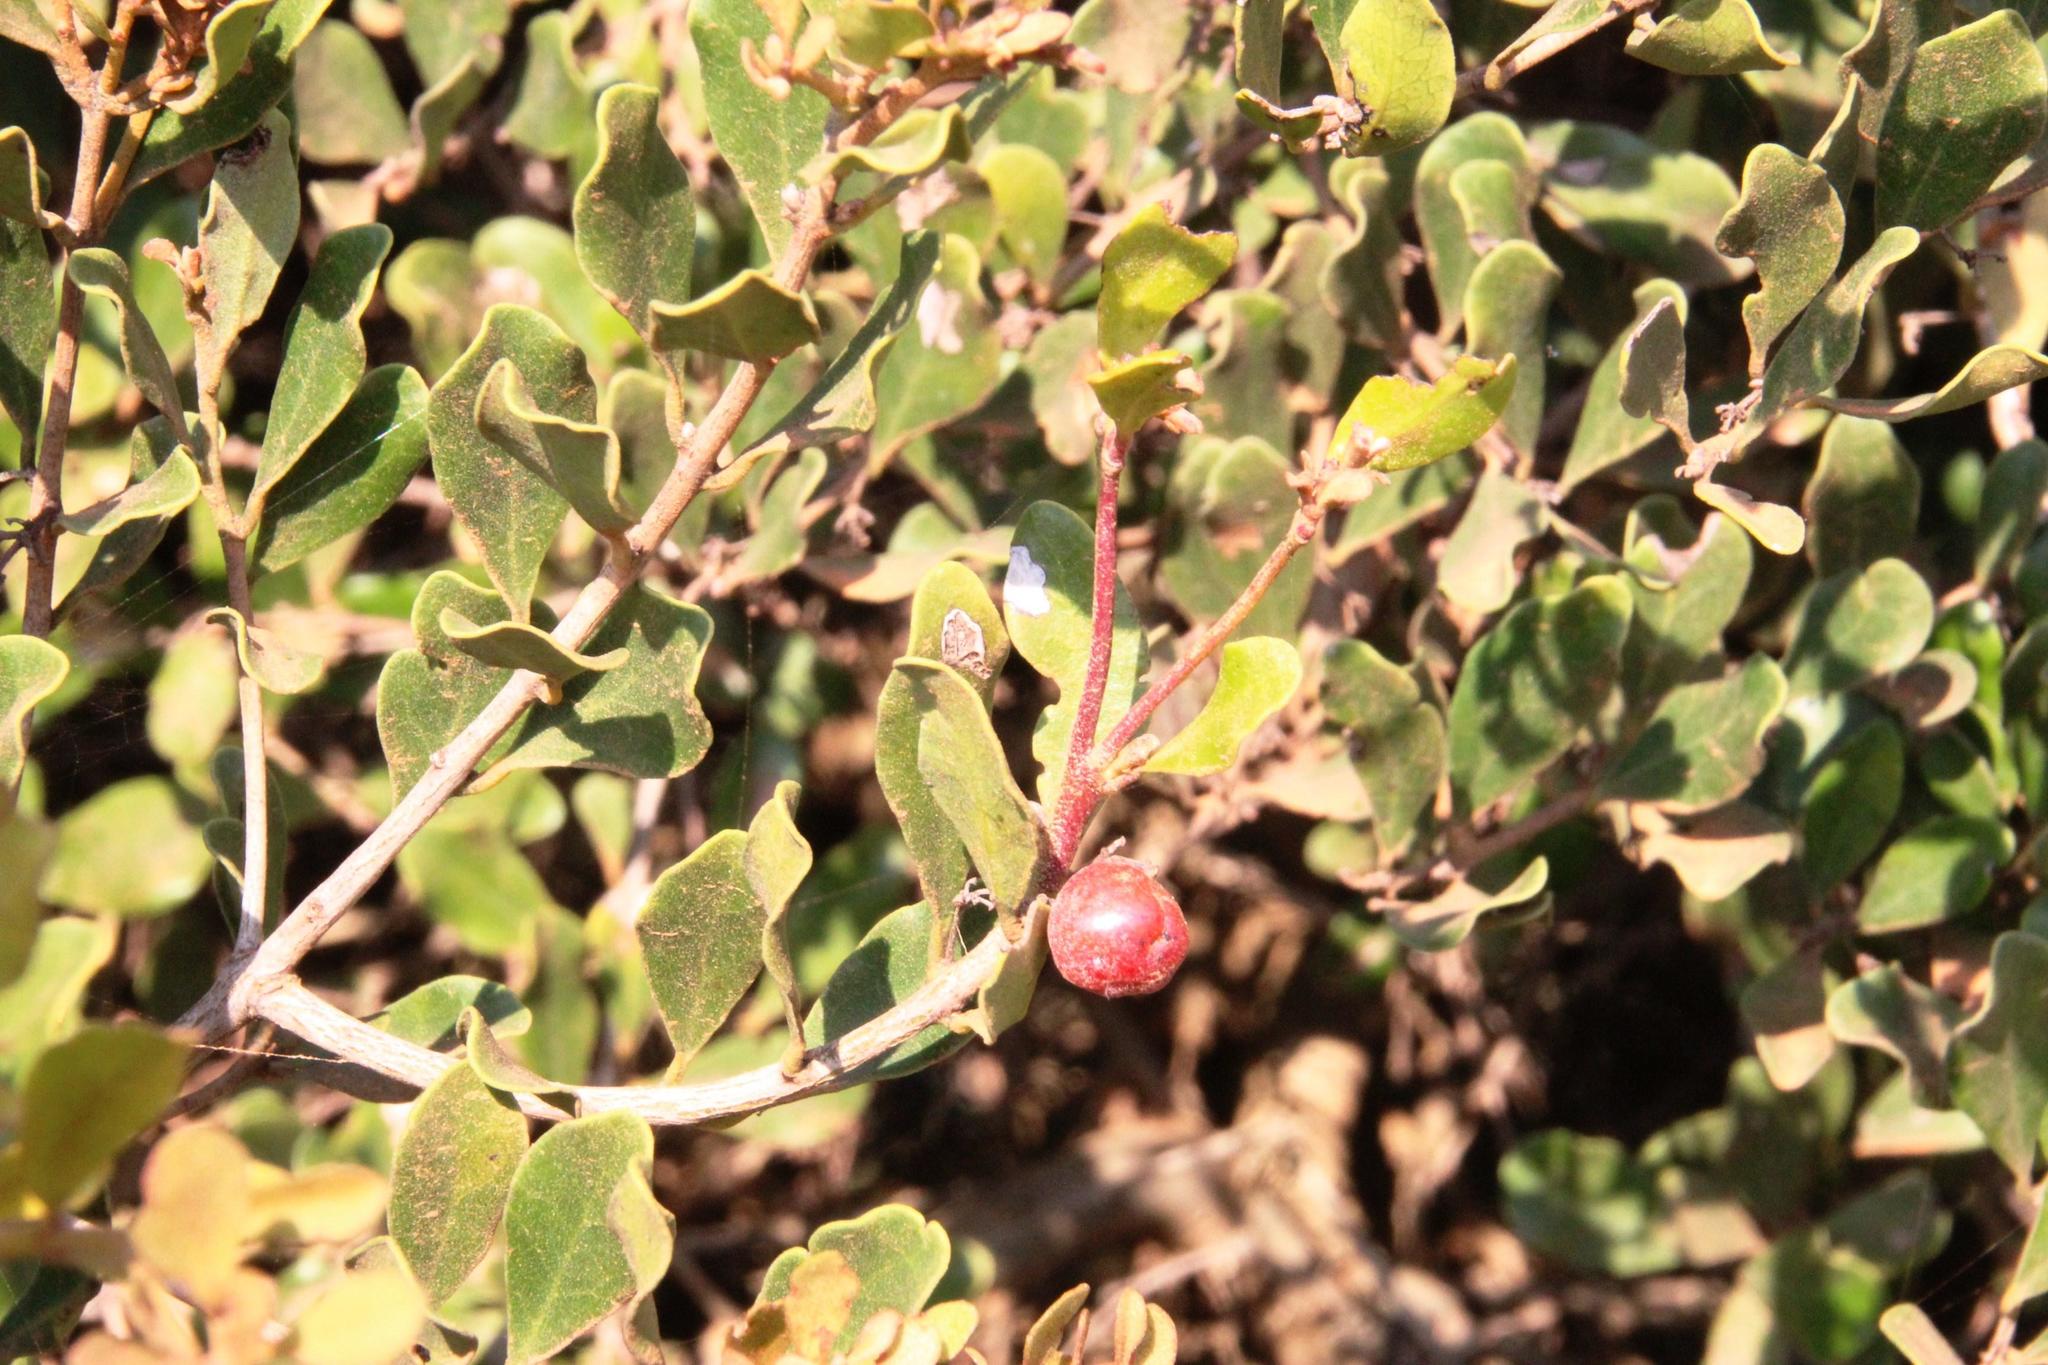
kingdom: Plantae
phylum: Tracheophyta
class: Magnoliopsida
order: Ericales
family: Ebenaceae
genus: Euclea
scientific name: Euclea undulata
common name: Small-leaved guarri
